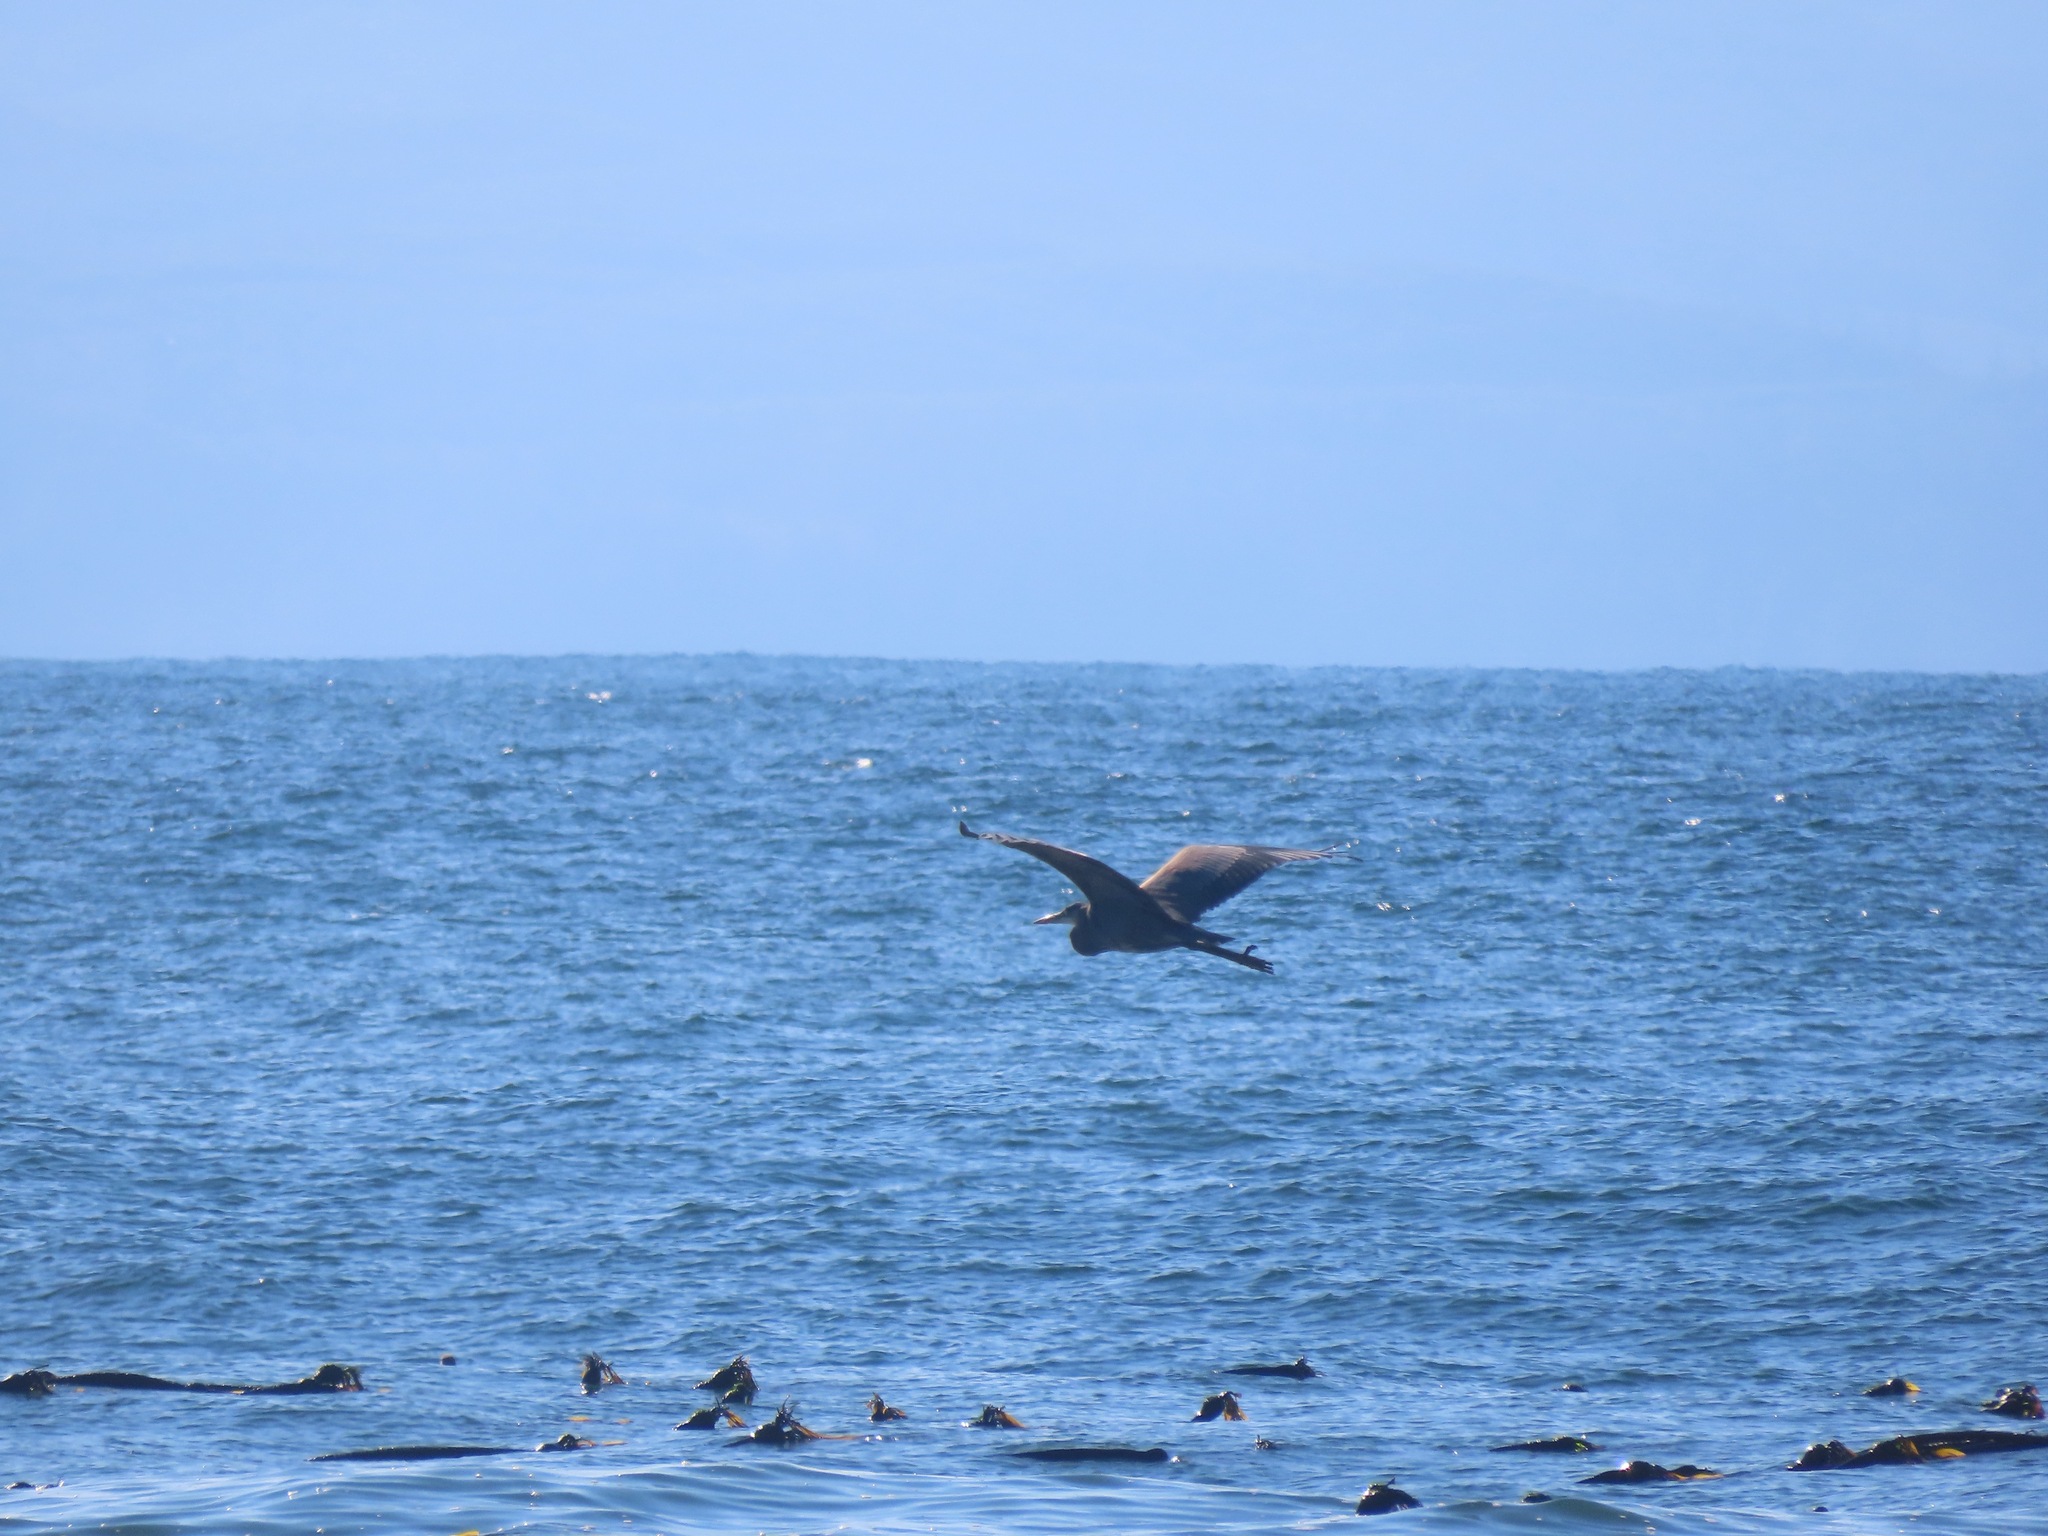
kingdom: Animalia
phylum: Chordata
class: Aves
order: Pelecaniformes
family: Ardeidae
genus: Ardea
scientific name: Ardea herodias
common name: Great blue heron
